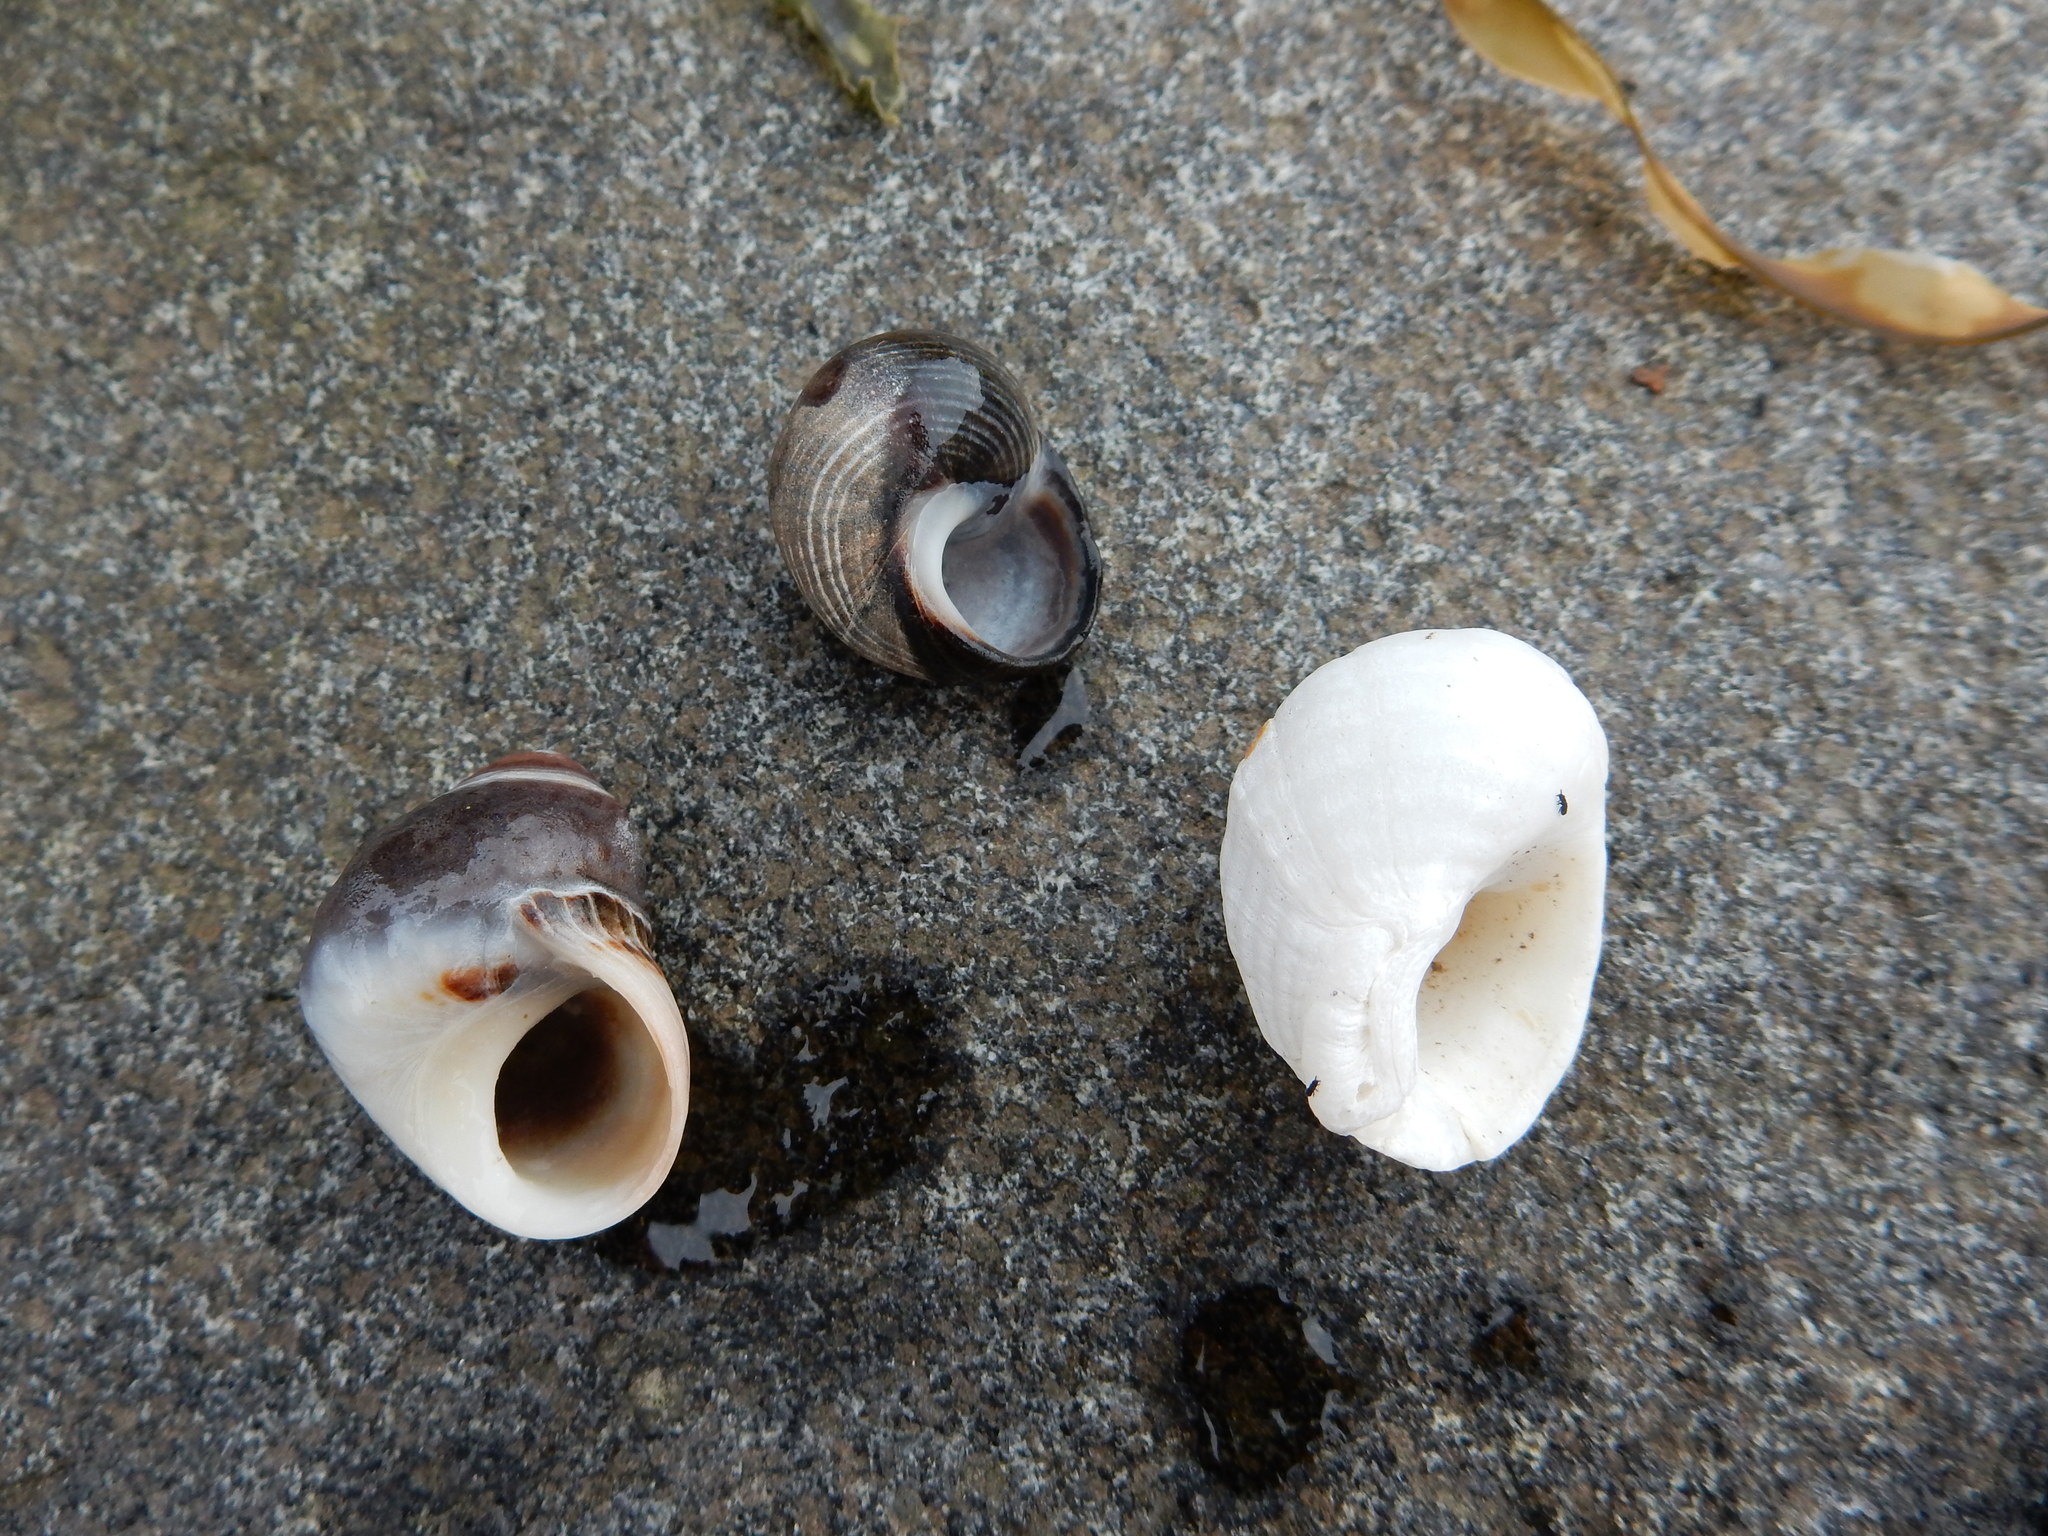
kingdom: Animalia
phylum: Mollusca
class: Gastropoda
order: Littorinimorpha
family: Littorinidae
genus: Littorina
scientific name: Littorina littorea
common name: Common periwinkle
